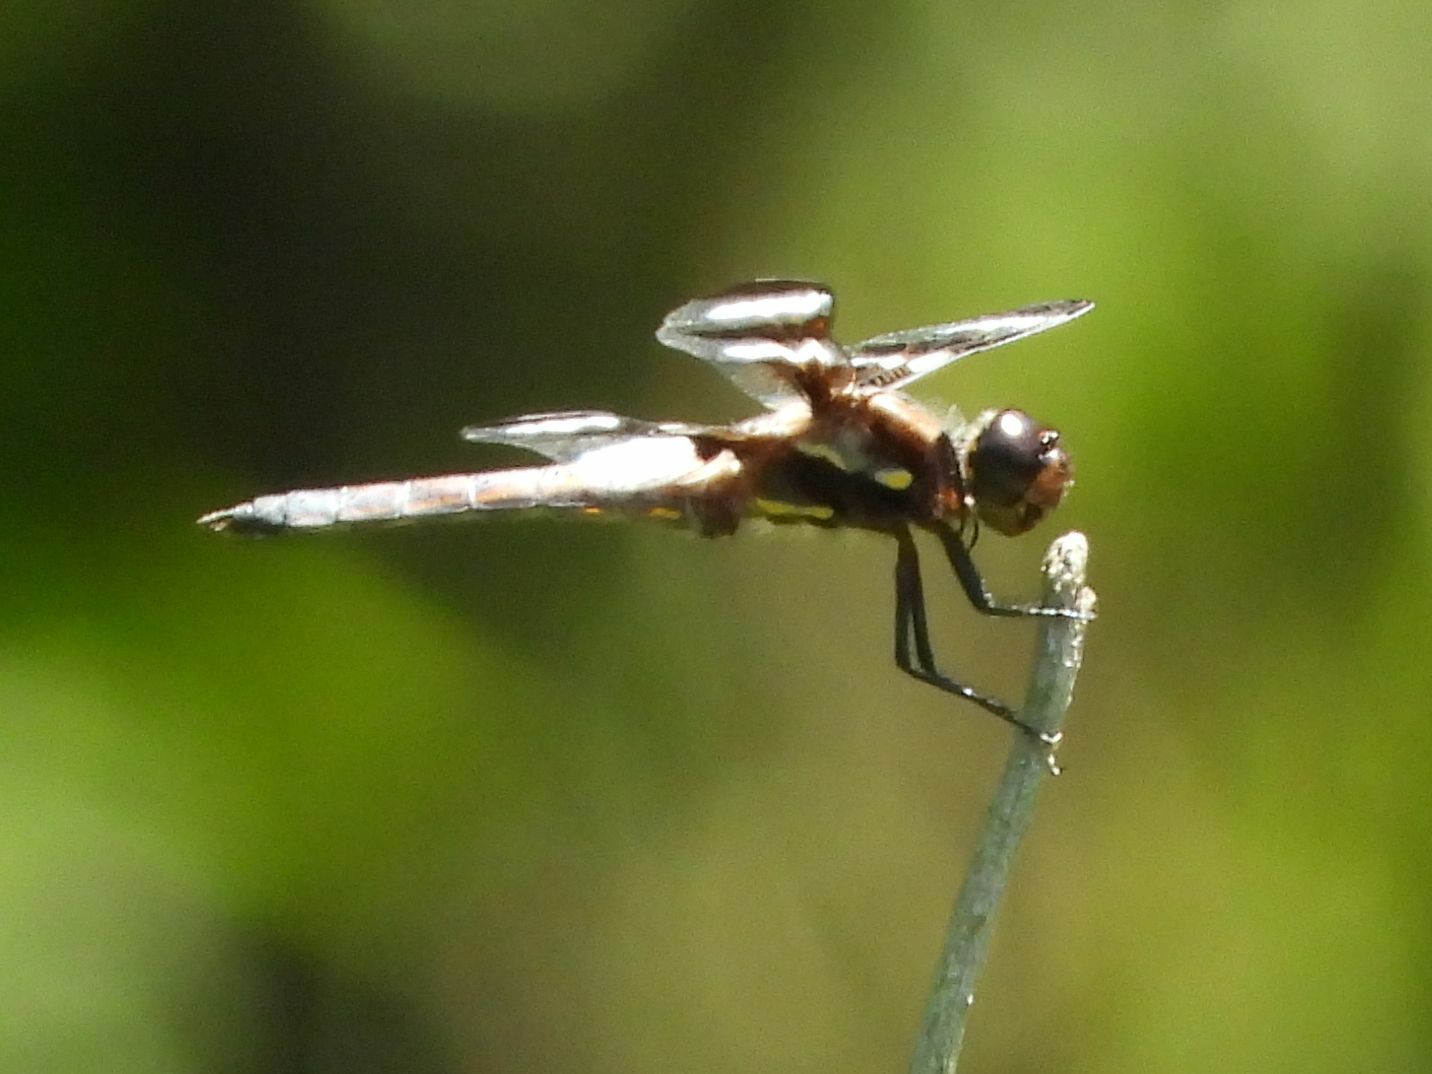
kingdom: Animalia
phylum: Arthropoda
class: Insecta
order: Odonata
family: Libellulidae
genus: Libellula
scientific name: Libellula pulchella
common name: Twelve-spotted skimmer
